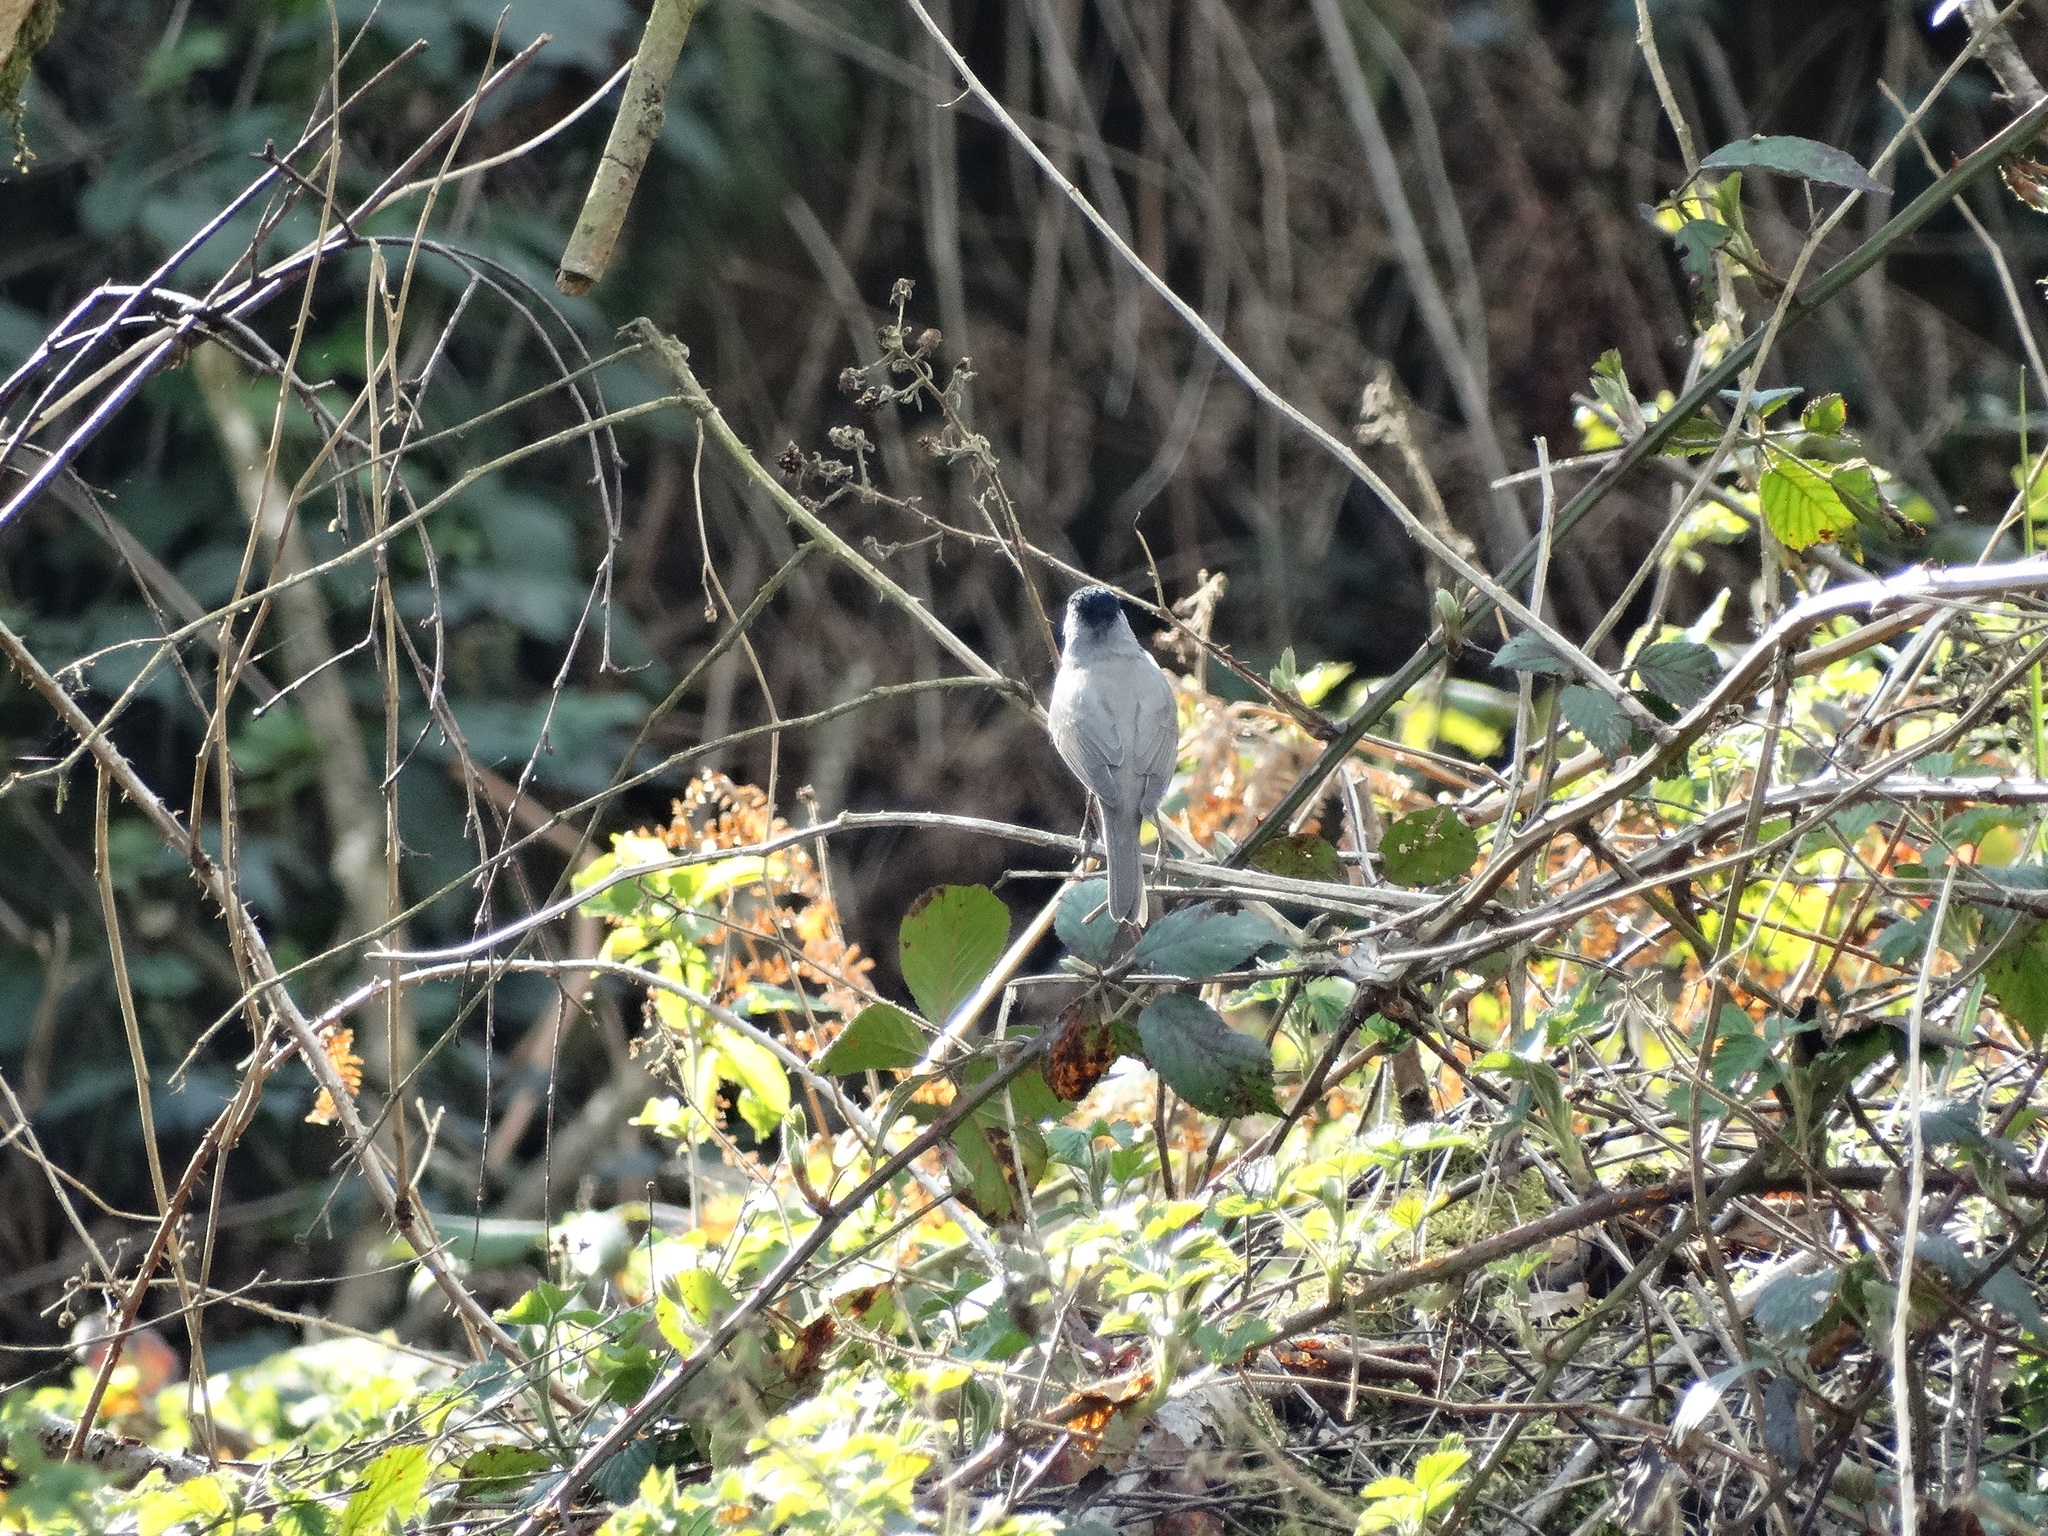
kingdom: Animalia
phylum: Chordata
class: Aves
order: Passeriformes
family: Sylviidae
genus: Sylvia
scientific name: Sylvia atricapilla
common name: Eurasian blackcap
